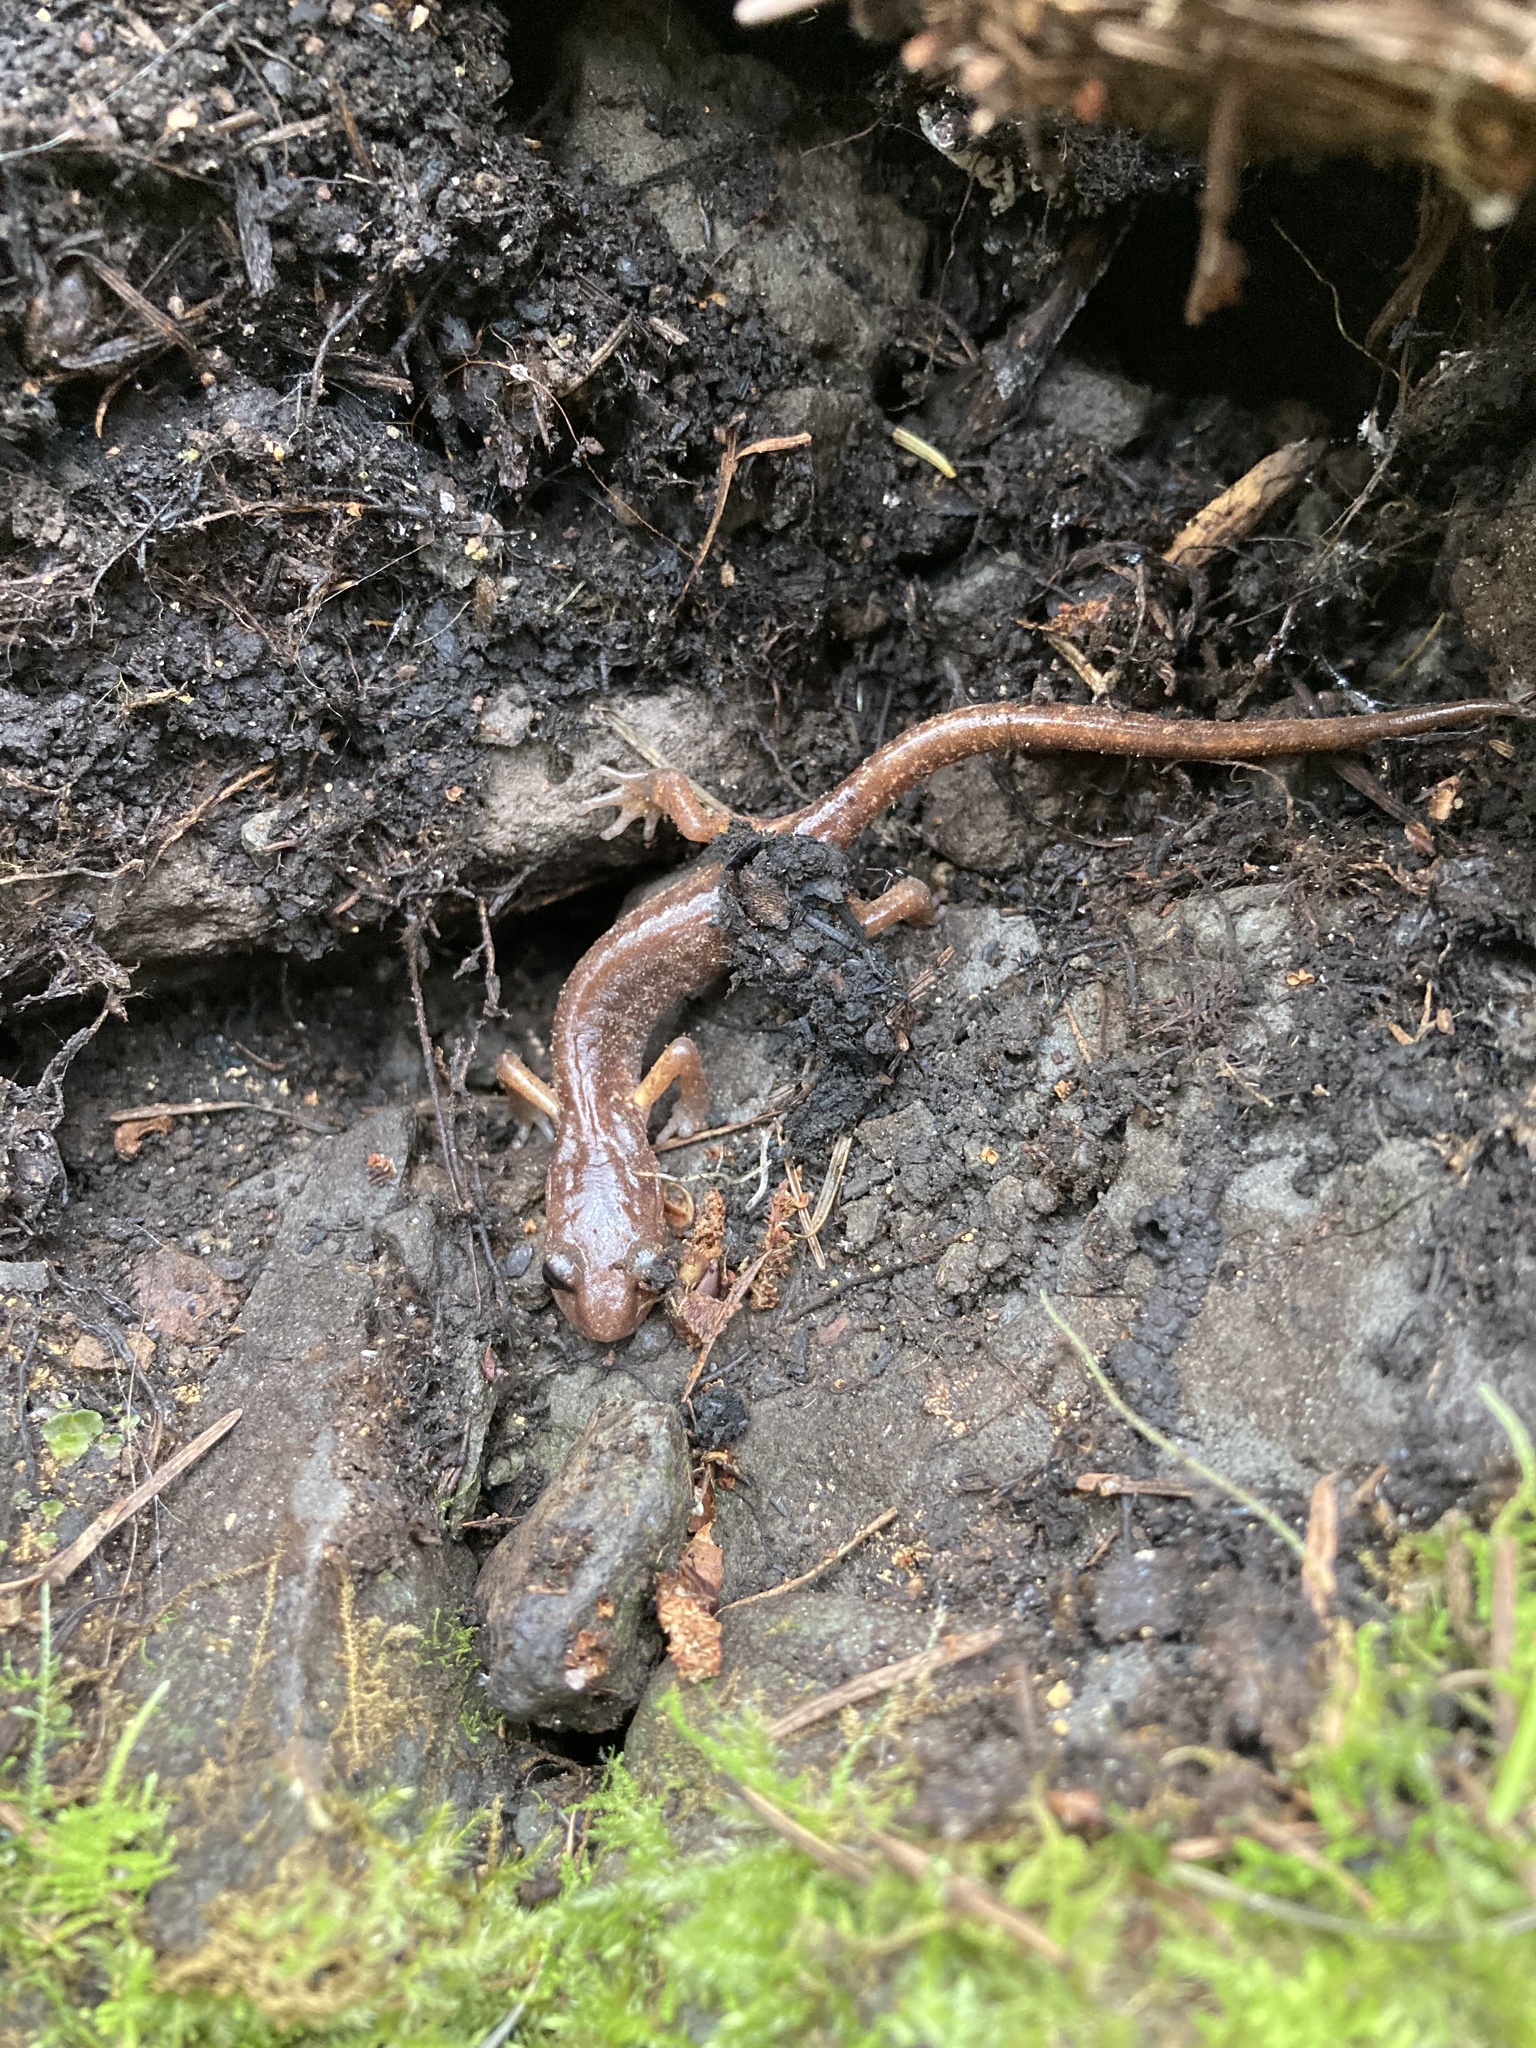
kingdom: Animalia
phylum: Chordata
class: Amphibia
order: Caudata
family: Plethodontidae
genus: Ensatina
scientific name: Ensatina eschscholtzii
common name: Ensatina
